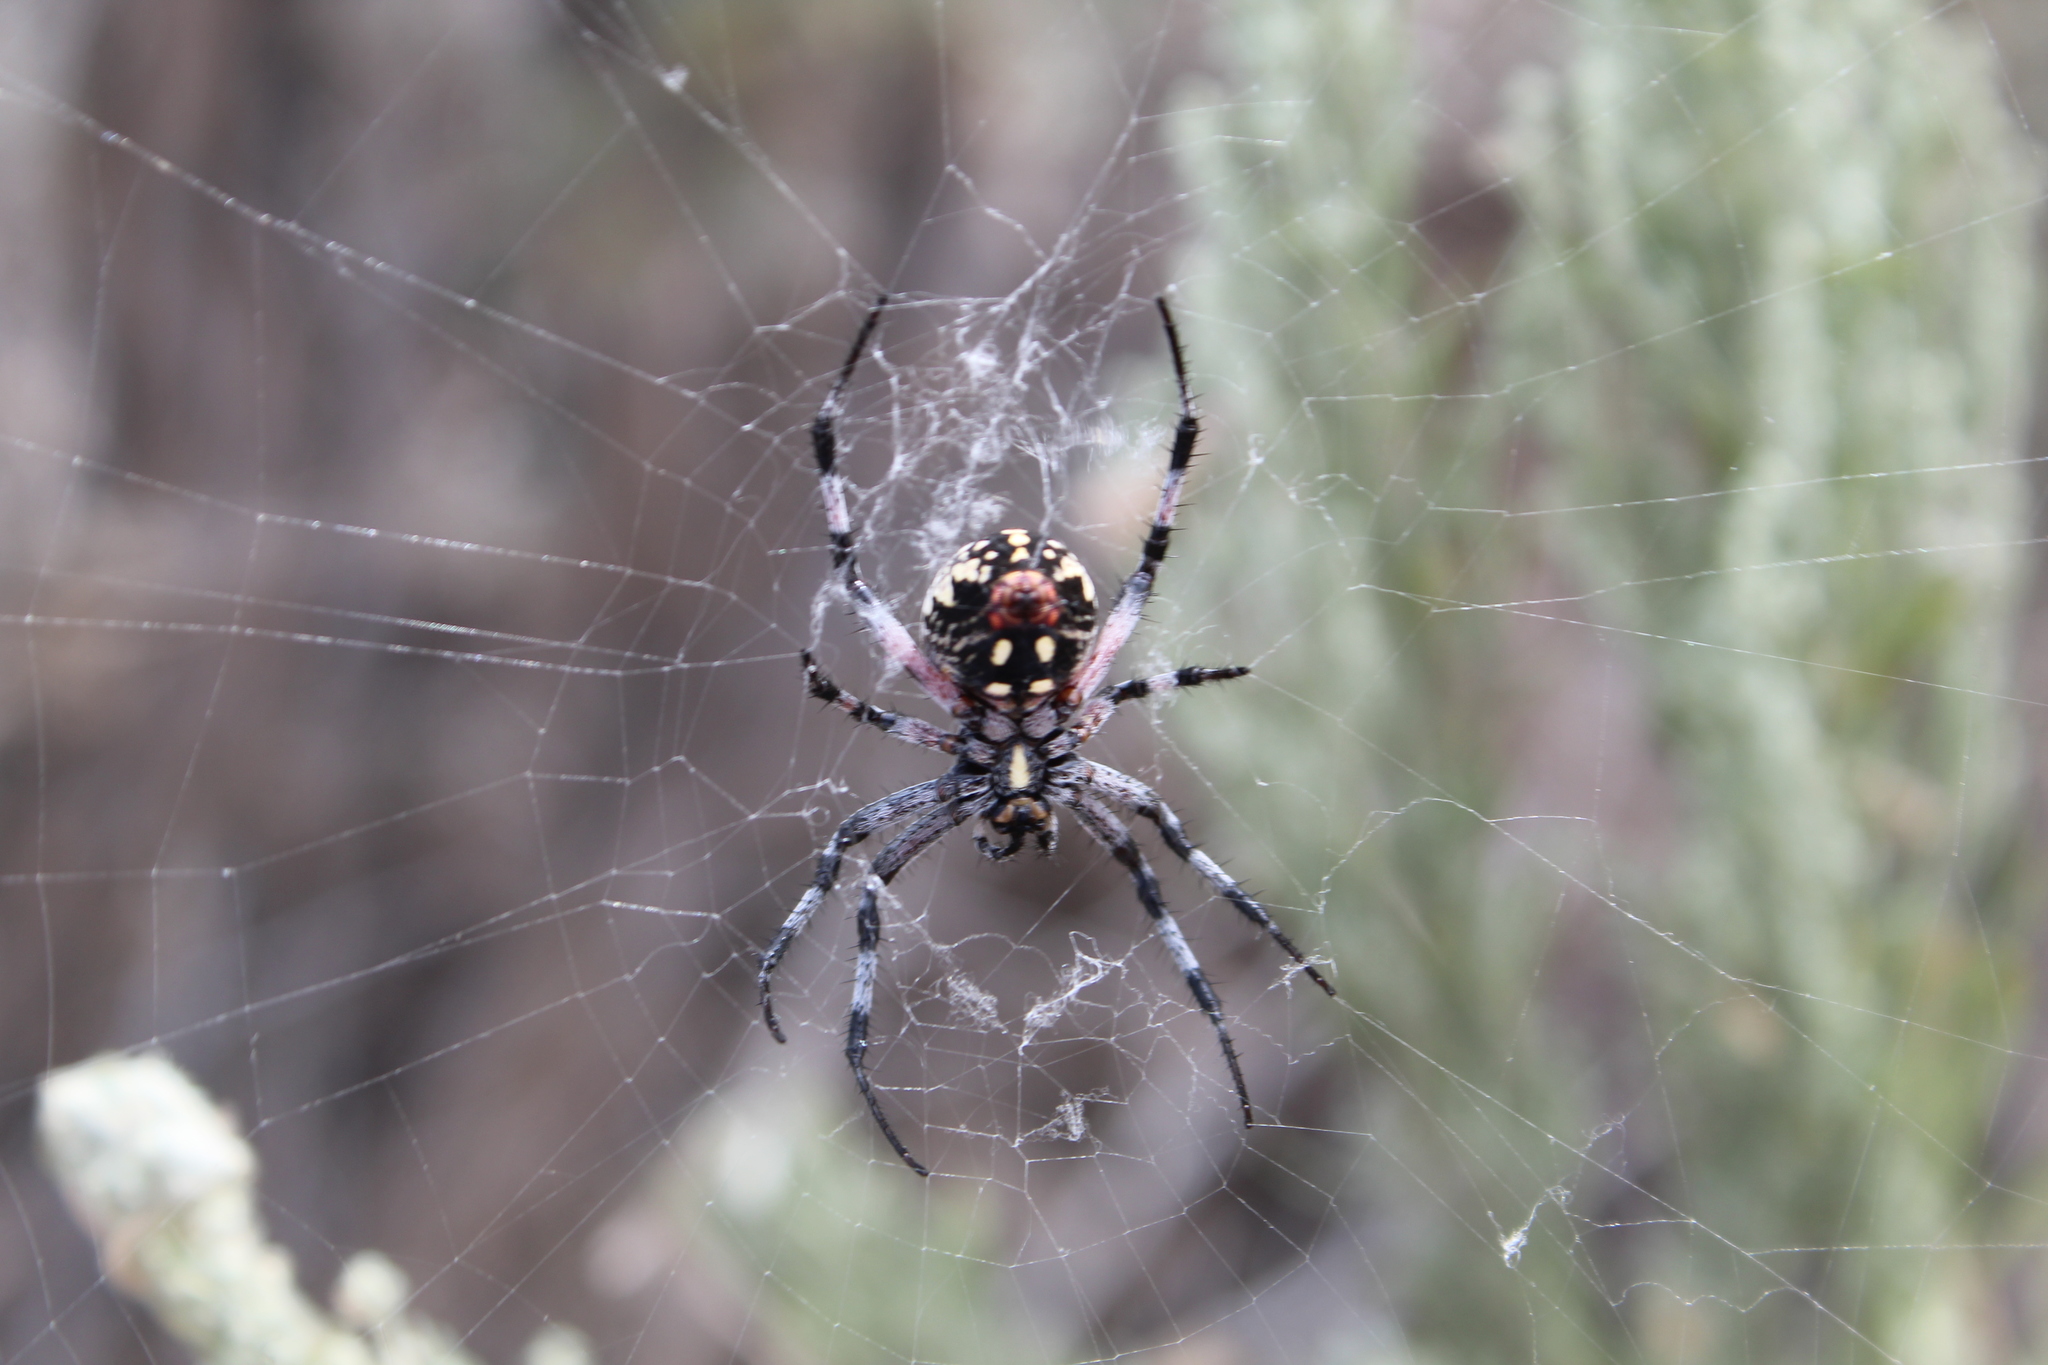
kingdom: Animalia
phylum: Arthropoda
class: Arachnida
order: Araneae
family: Araneidae
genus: Neoscona
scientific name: Neoscona oaxacensis
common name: Orb weavers
